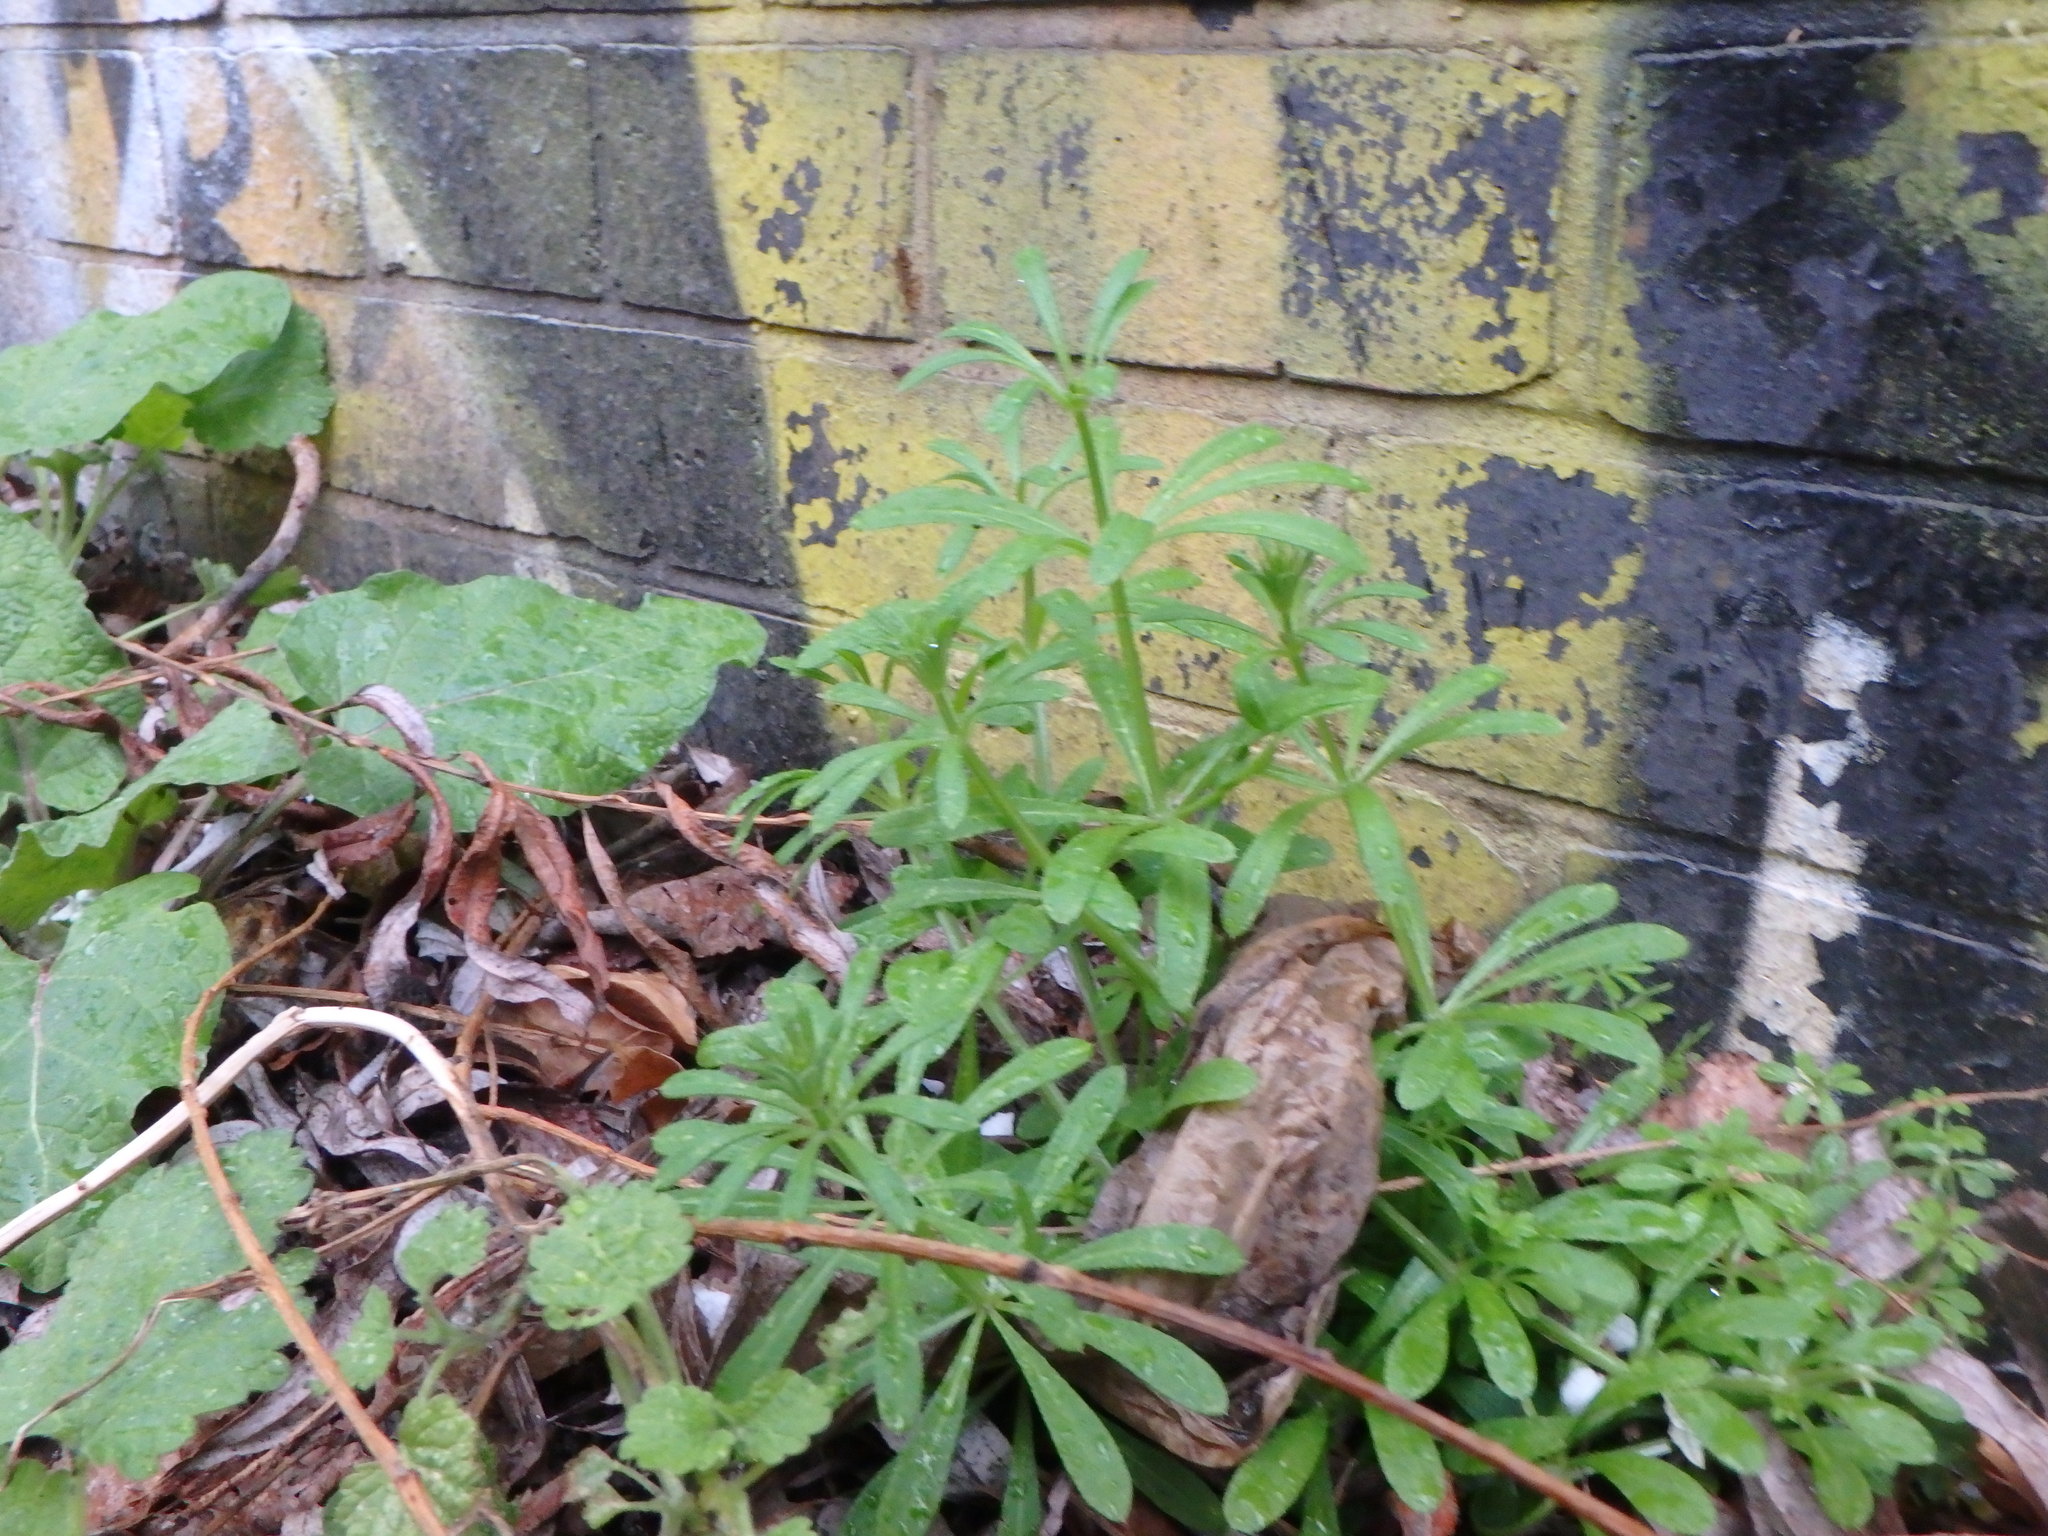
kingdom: Plantae
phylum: Tracheophyta
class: Magnoliopsida
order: Gentianales
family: Rubiaceae
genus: Galium
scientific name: Galium aparine
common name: Cleavers
